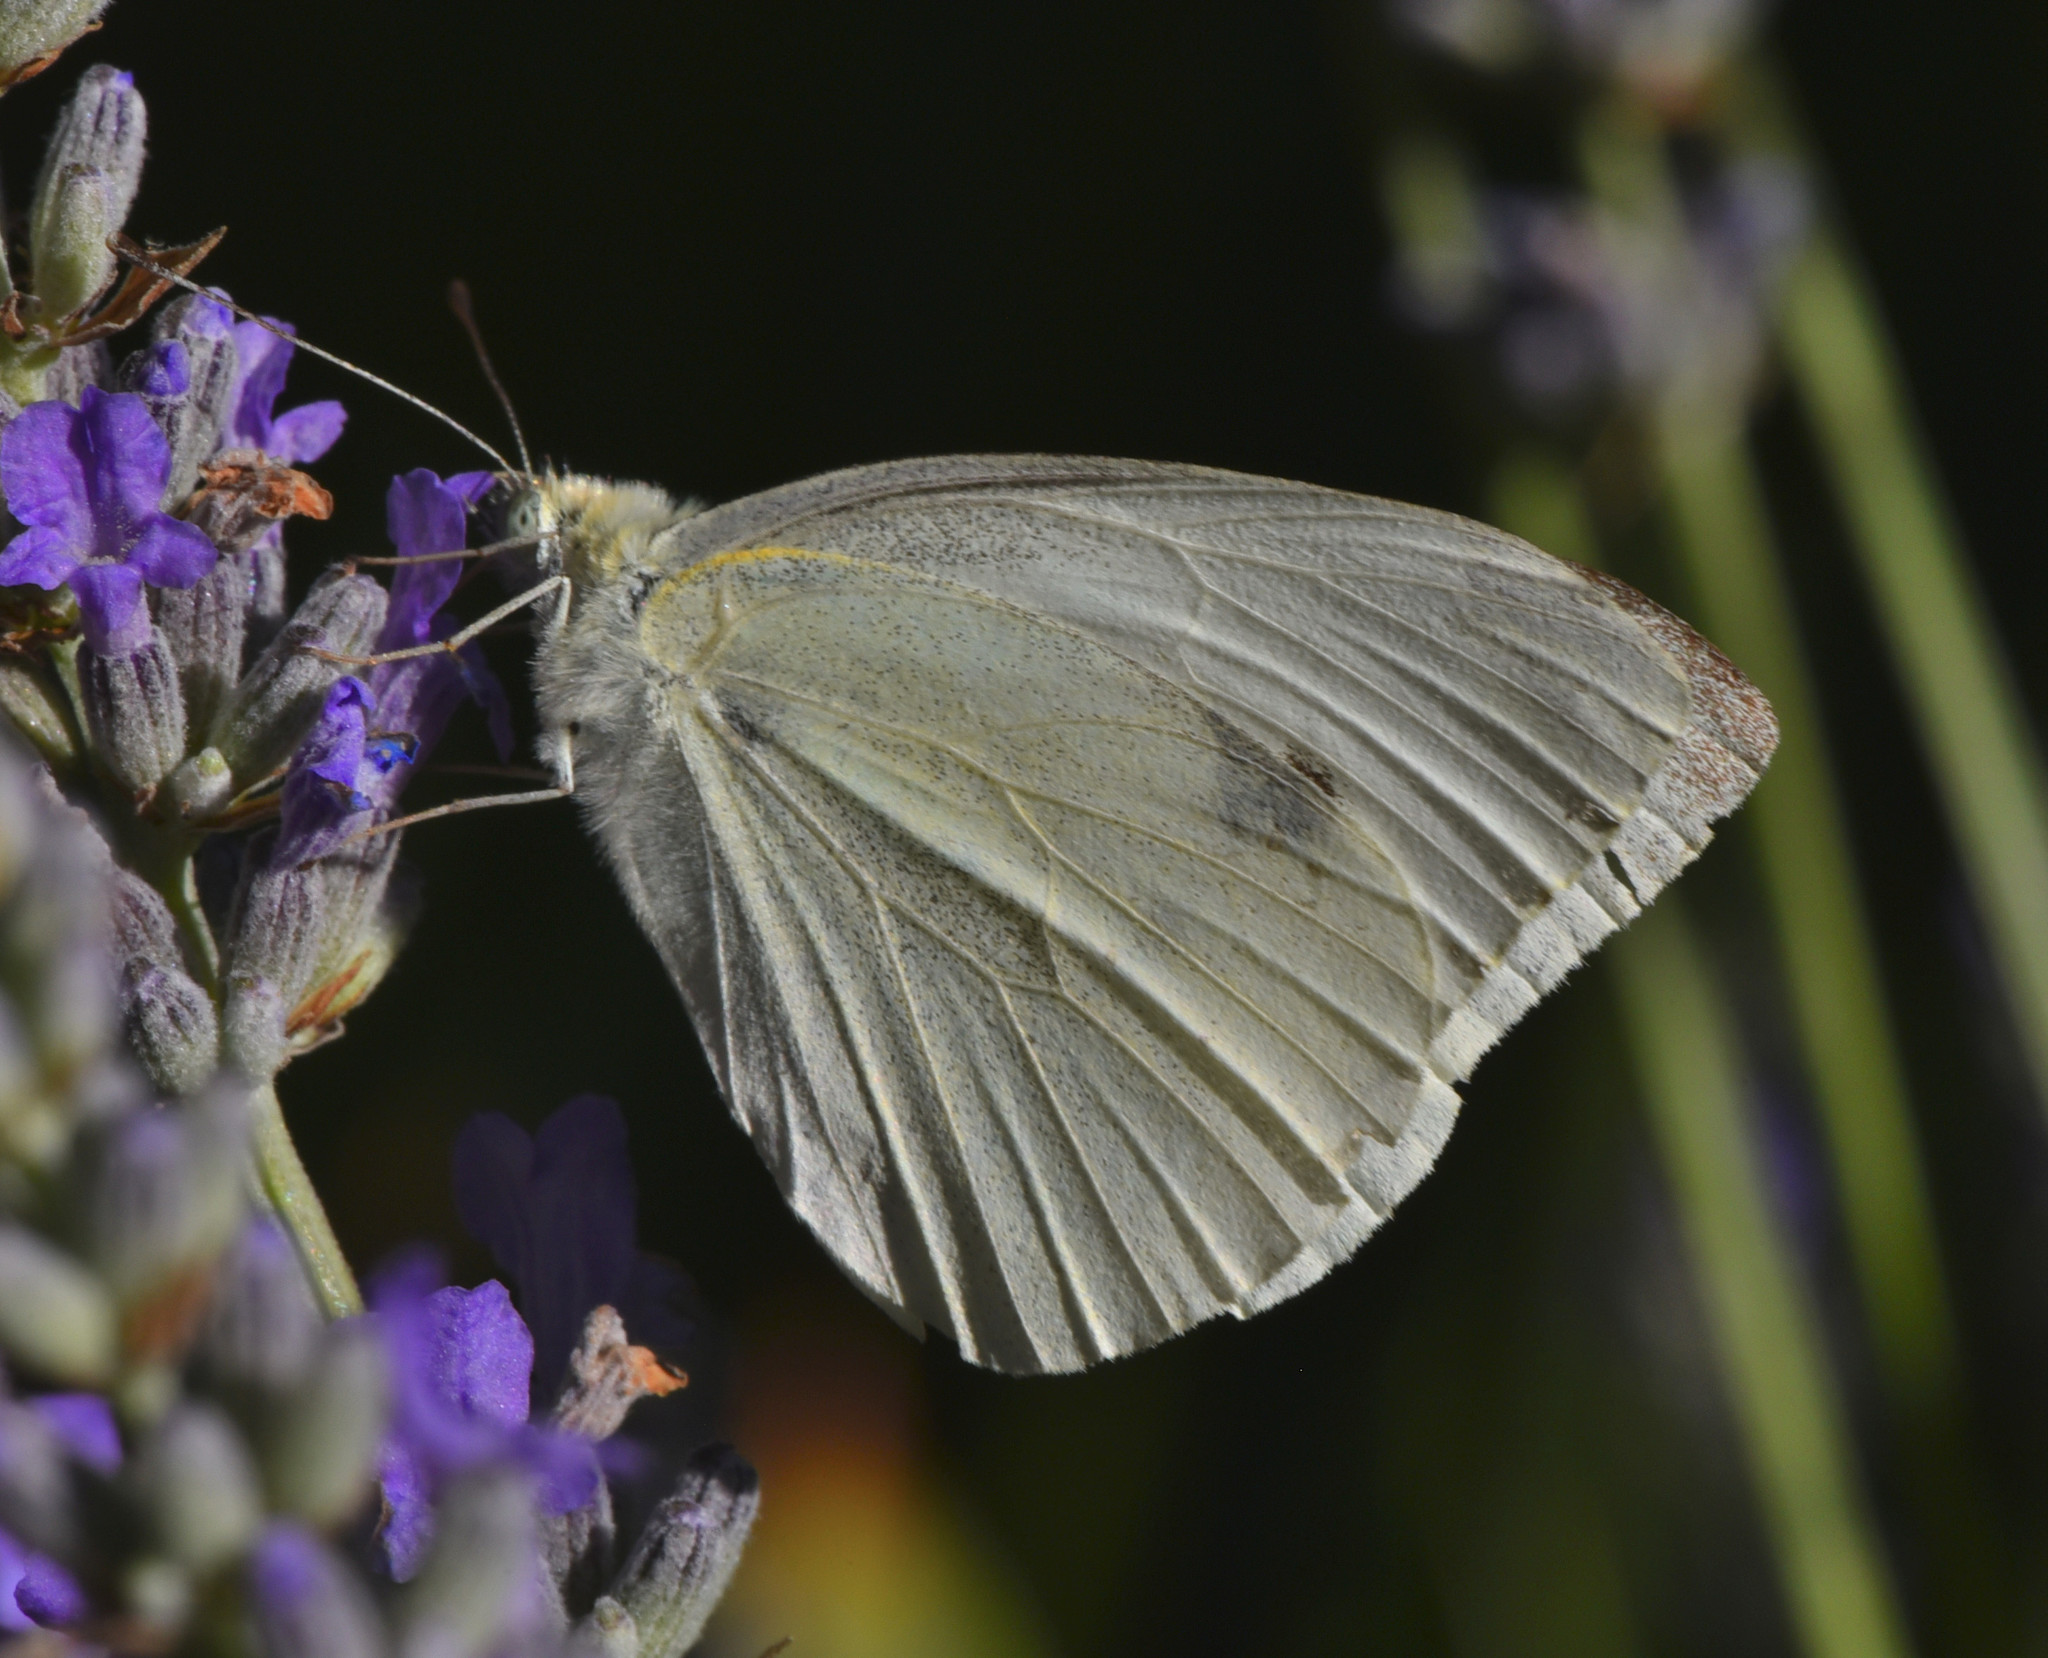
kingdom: Animalia
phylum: Arthropoda
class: Insecta
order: Lepidoptera
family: Pieridae
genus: Pieris
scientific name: Pieris rapae
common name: Small white
